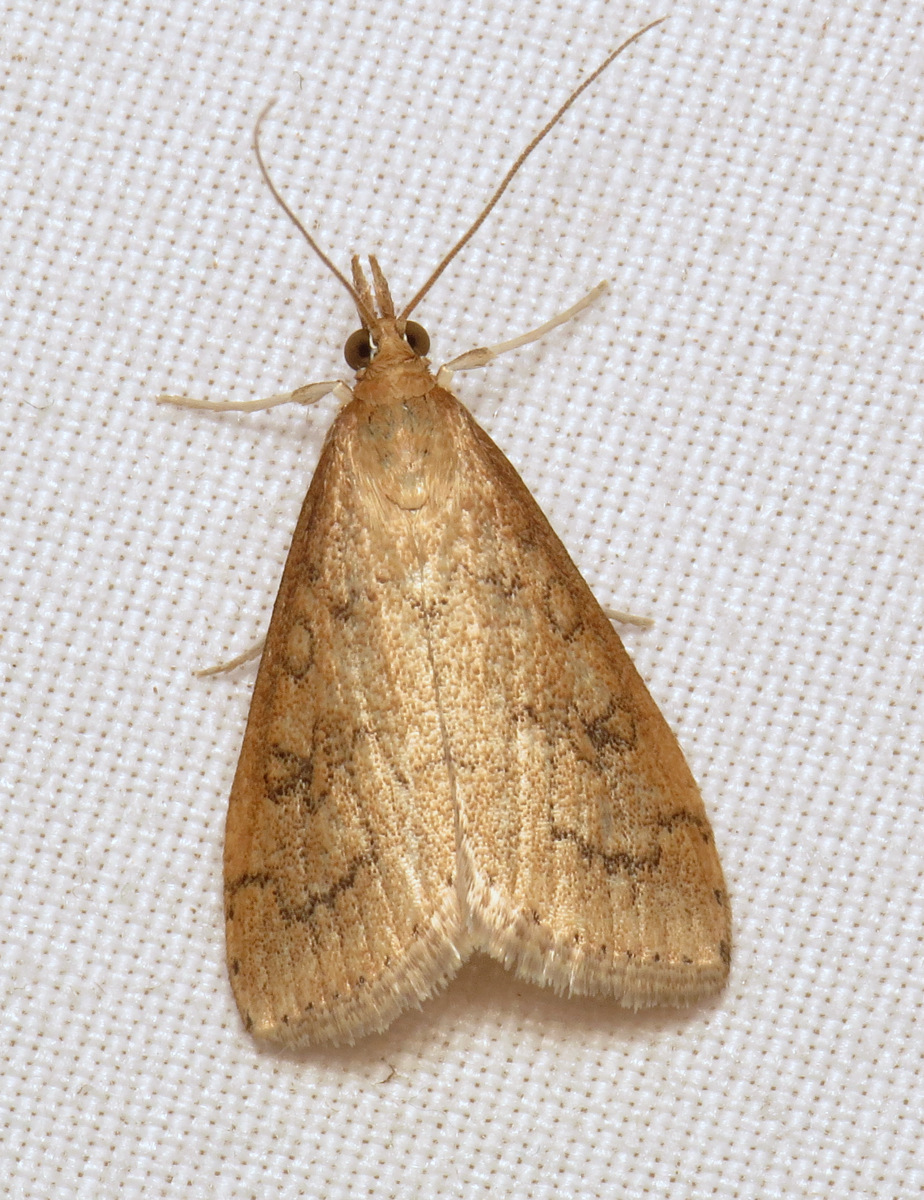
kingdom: Animalia
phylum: Arthropoda
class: Insecta
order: Lepidoptera
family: Crambidae
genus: Udea
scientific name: Udea rubigalis
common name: Celery leaftier moth
